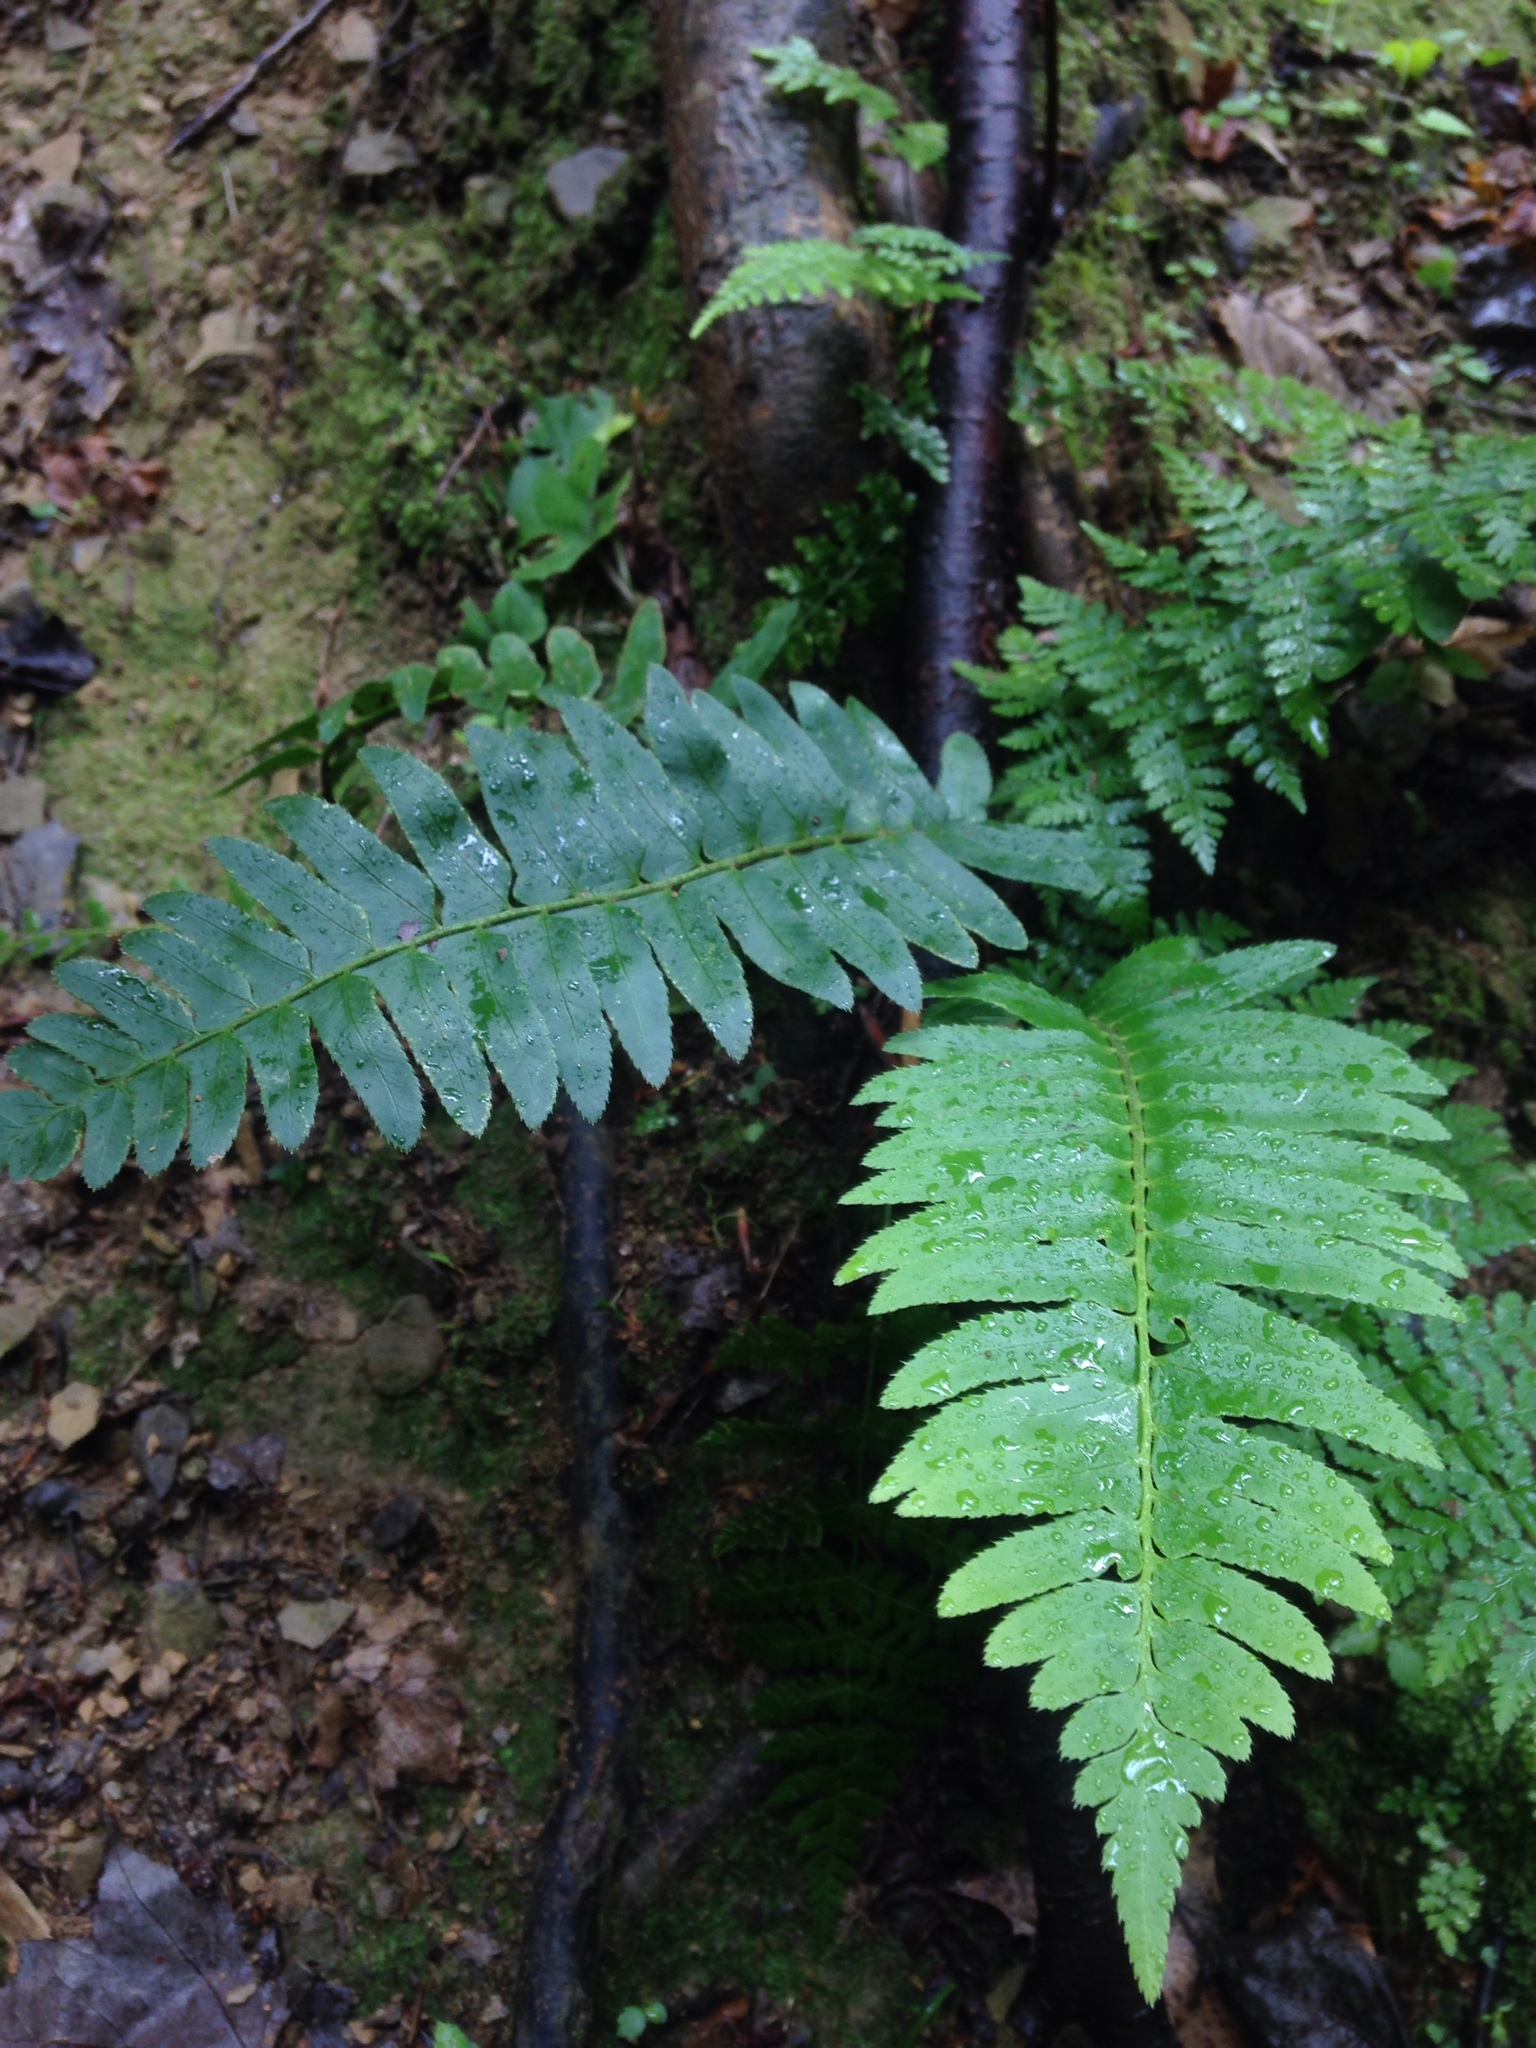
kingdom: Plantae
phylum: Tracheophyta
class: Polypodiopsida
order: Polypodiales
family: Dryopteridaceae
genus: Polystichum
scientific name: Polystichum acrostichoides
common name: Christmas fern
